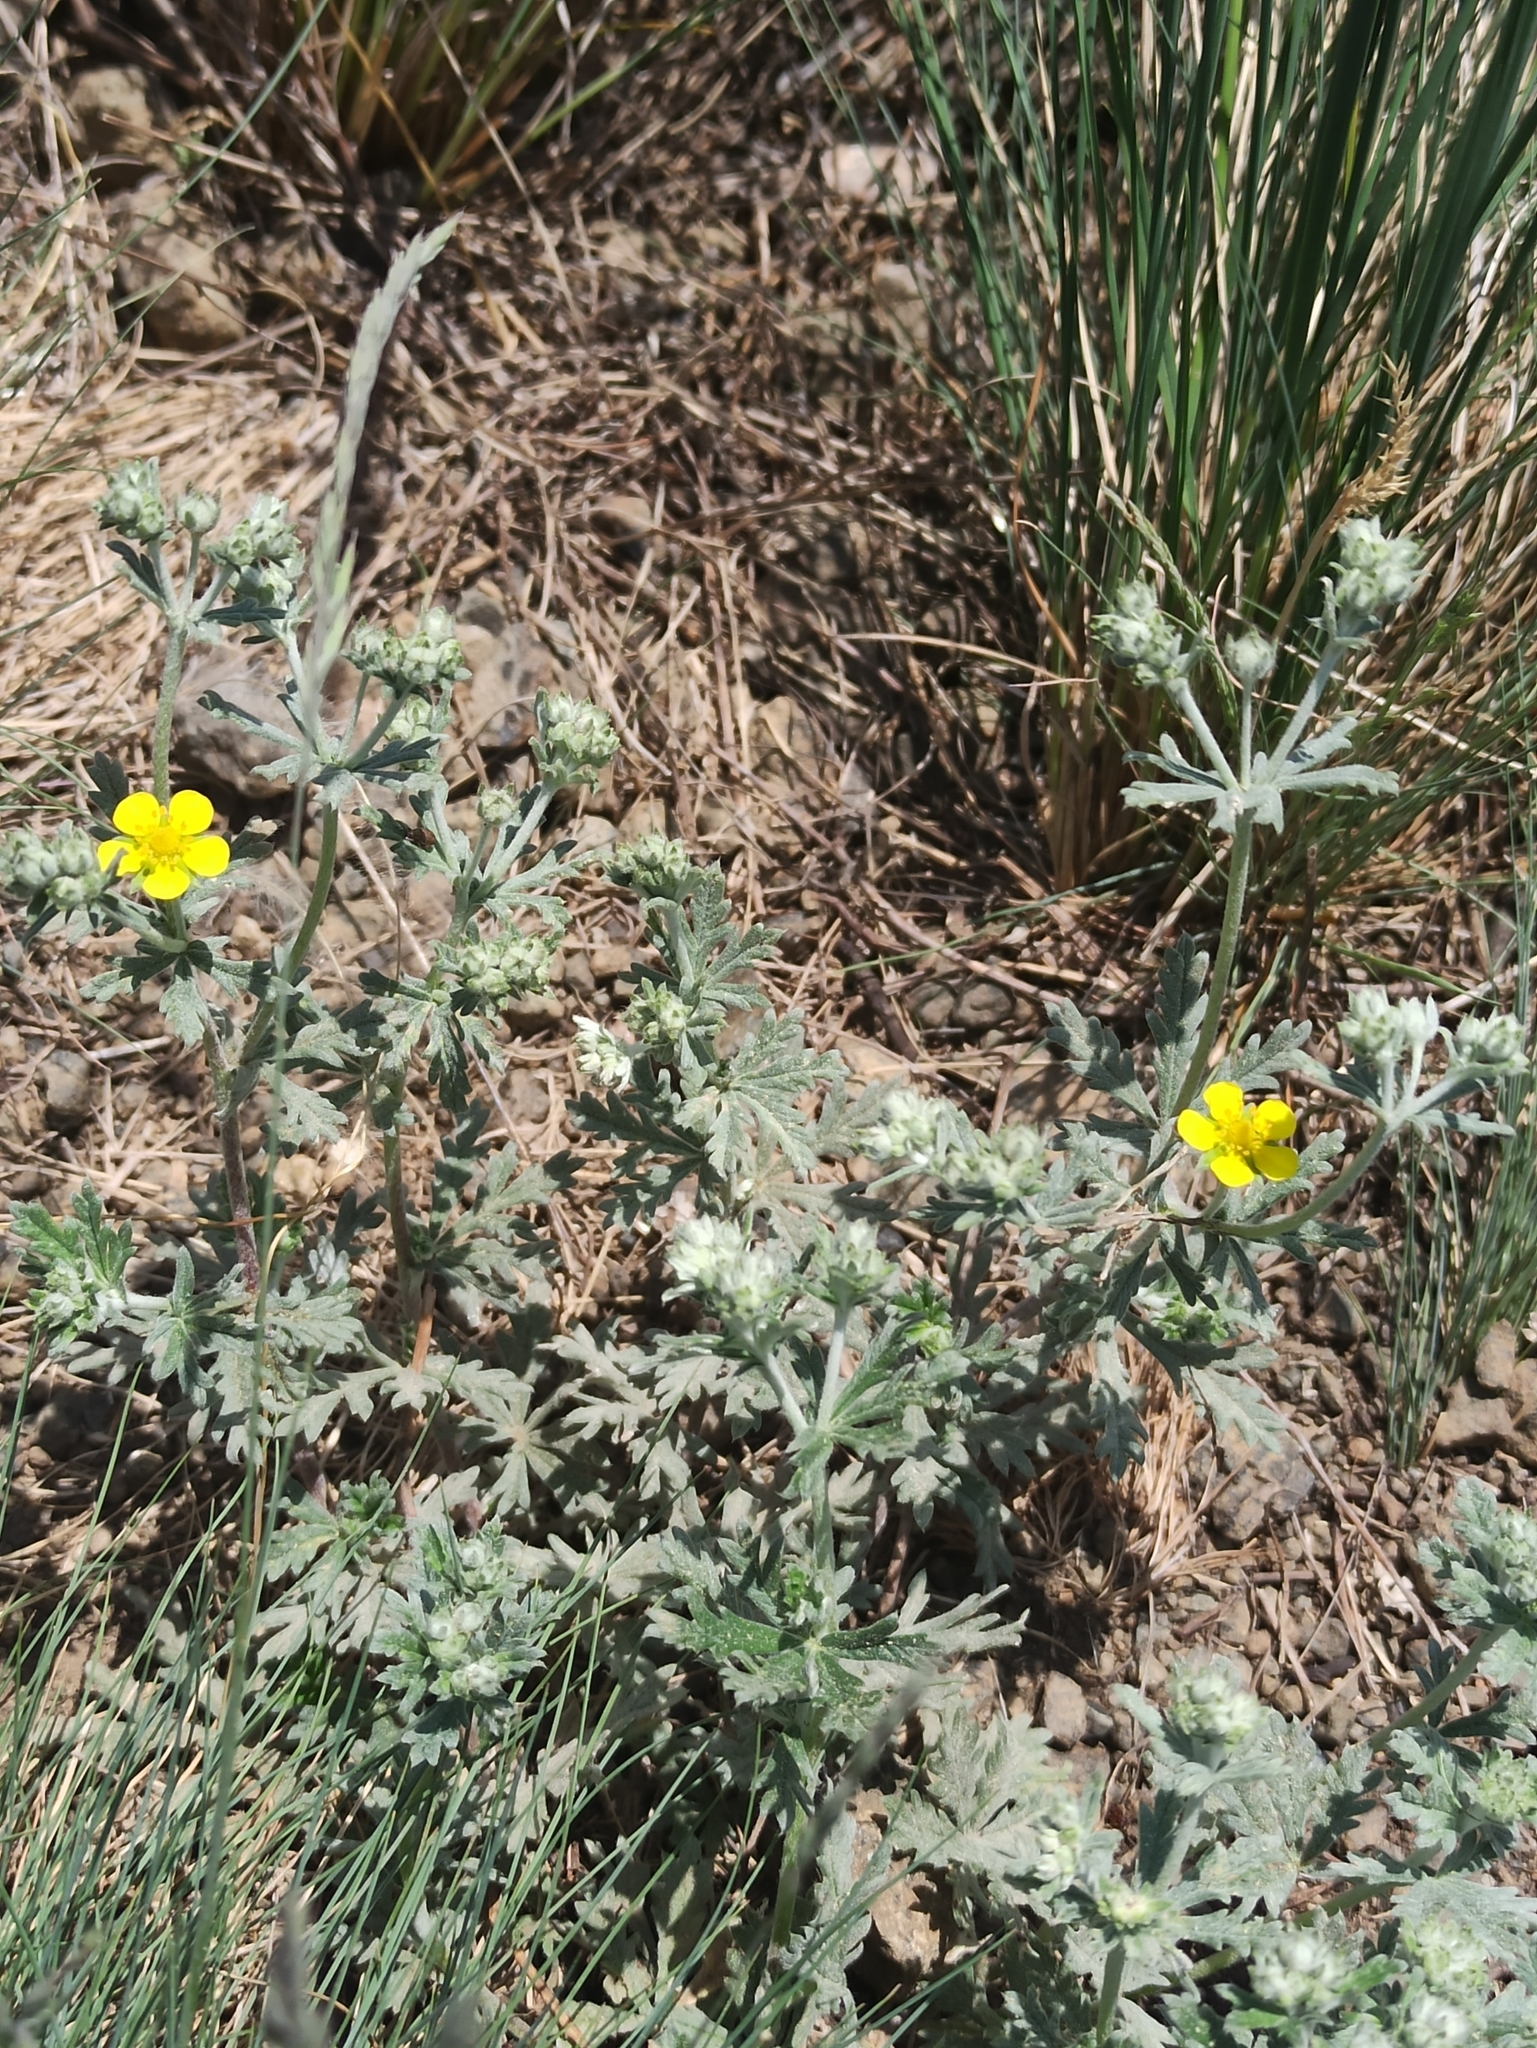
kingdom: Plantae
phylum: Tracheophyta
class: Magnoliopsida
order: Rosales
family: Rosaceae
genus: Potentilla
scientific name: Potentilla argentea
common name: Hoary cinquefoil
